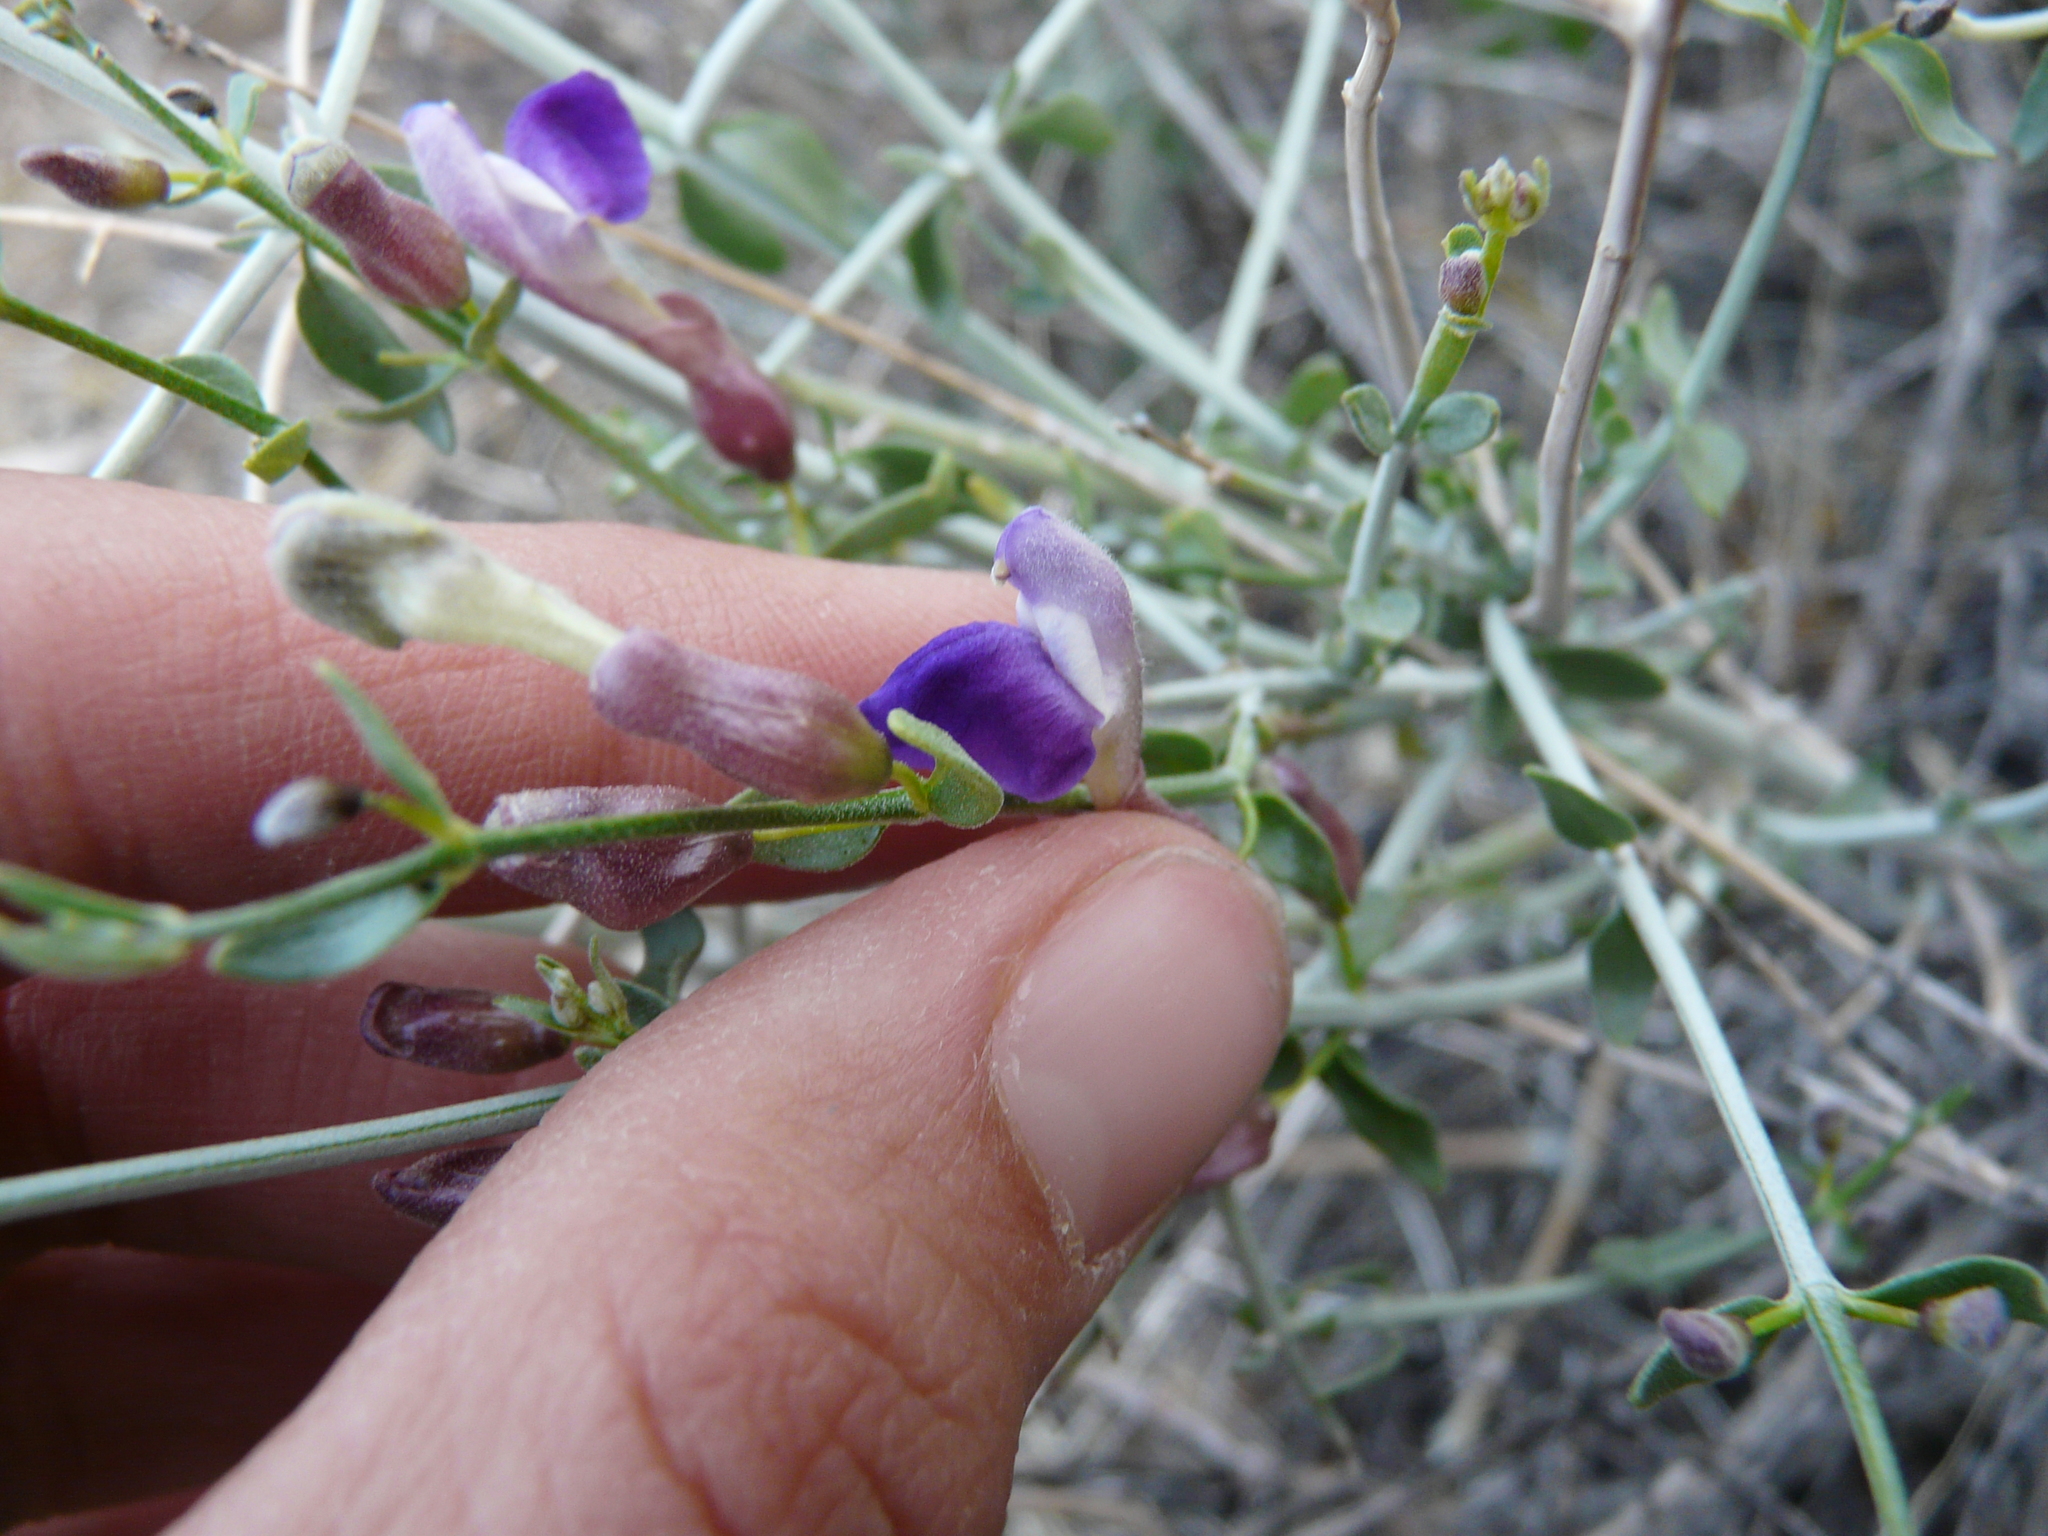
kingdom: Plantae
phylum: Tracheophyta
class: Magnoliopsida
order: Lamiales
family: Lamiaceae
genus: Scutellaria
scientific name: Scutellaria mexicana
